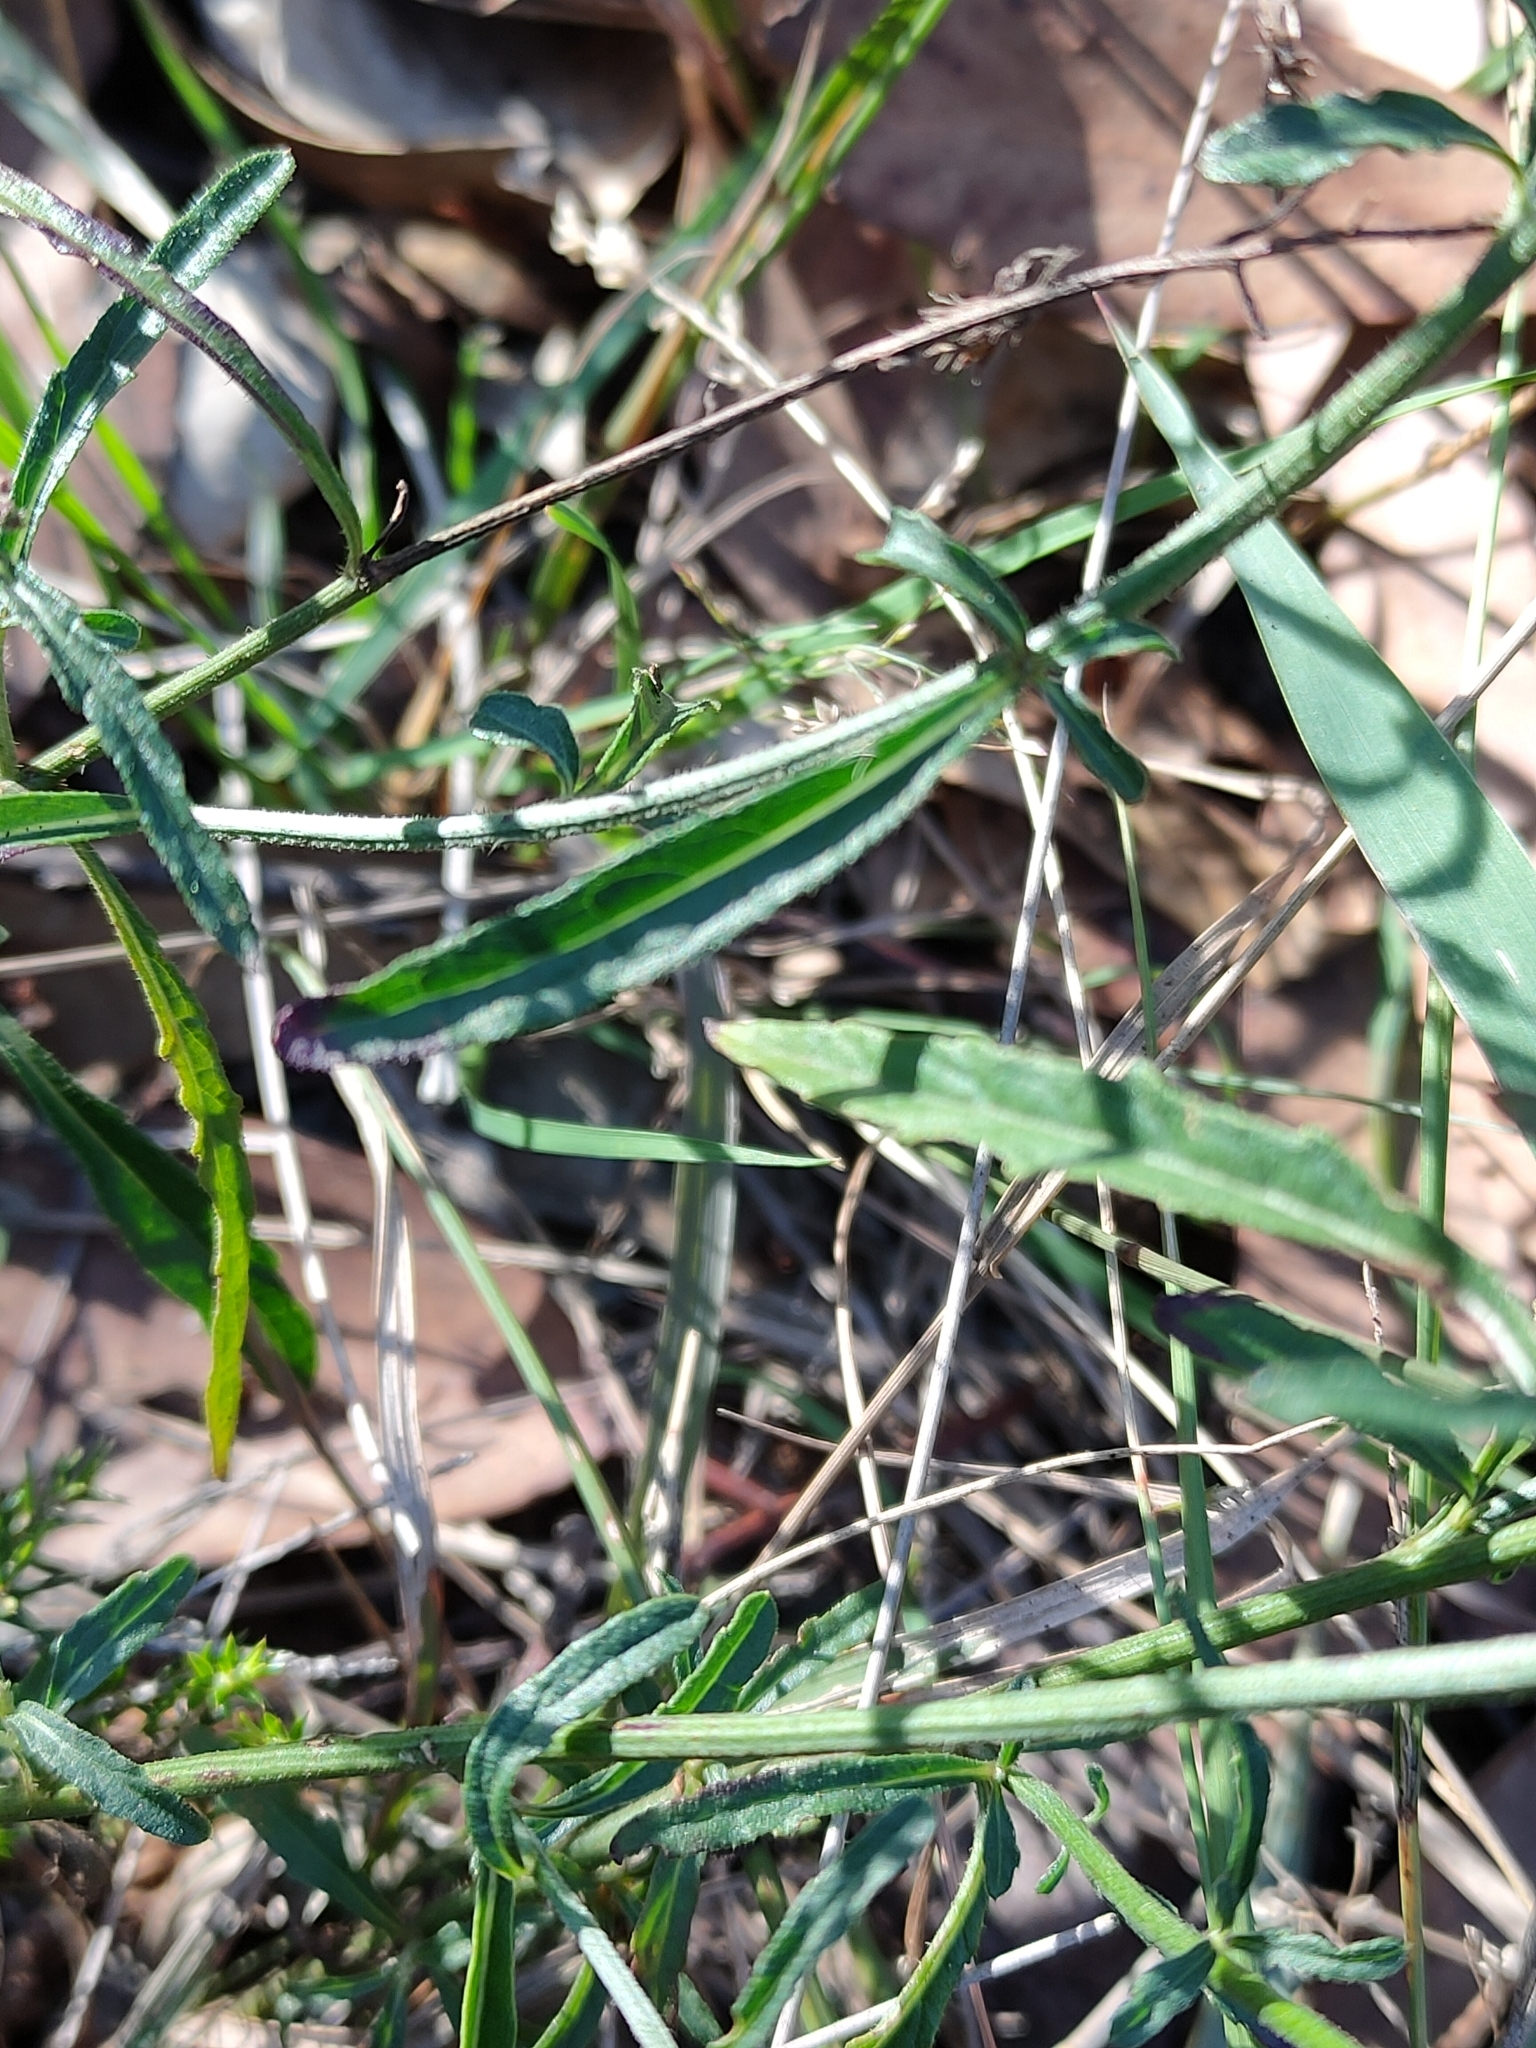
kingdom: Plantae
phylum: Tracheophyta
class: Magnoliopsida
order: Asterales
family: Asteraceae
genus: Cyanthillium
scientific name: Cyanthillium cinereum
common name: Little ironweed
